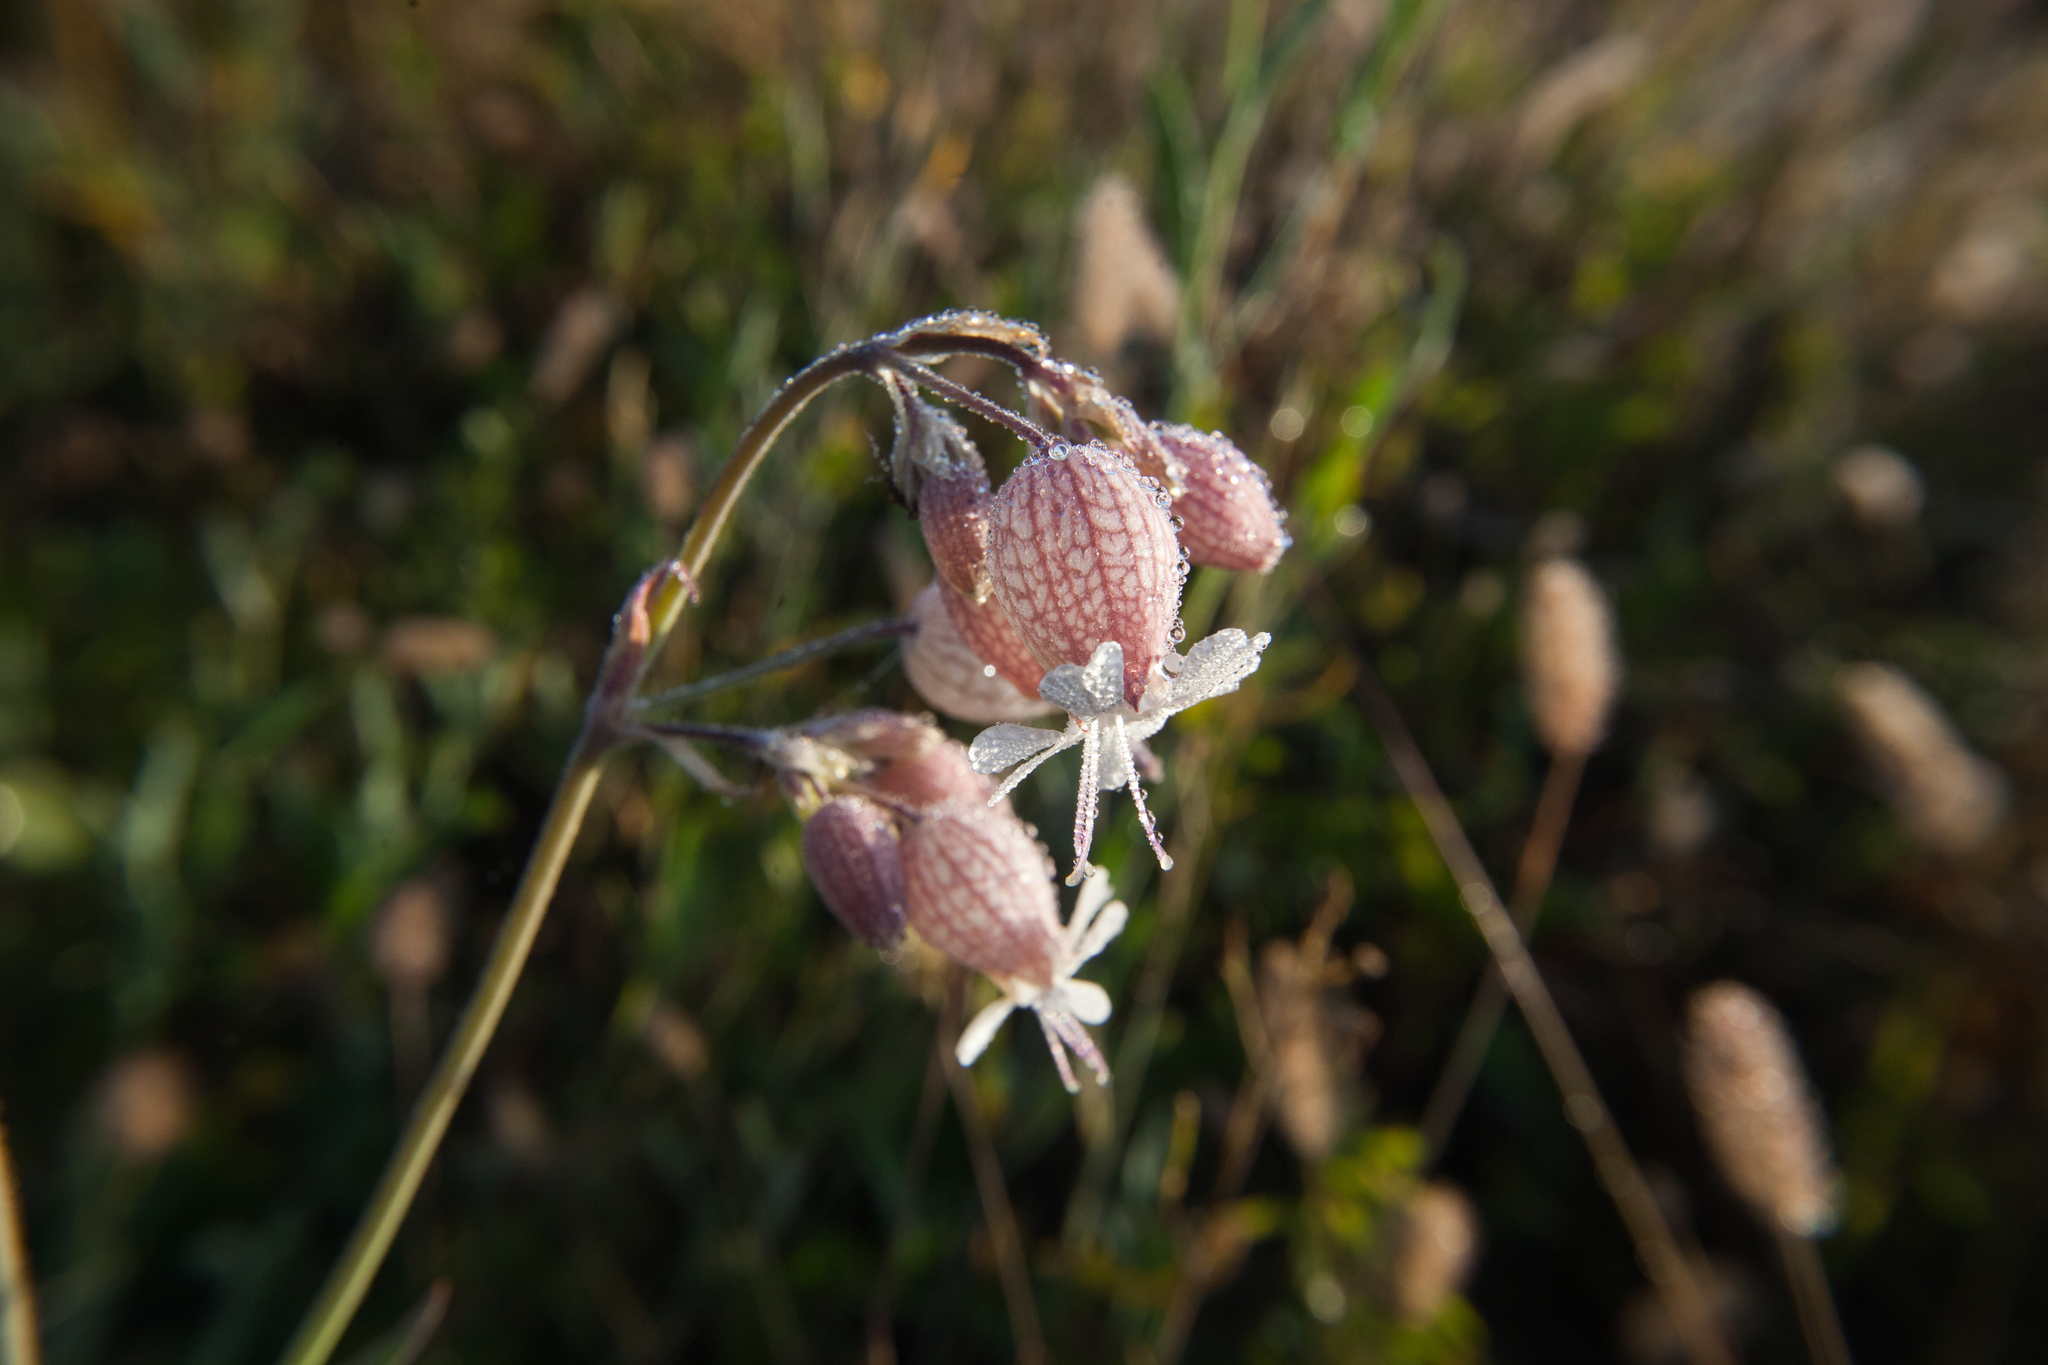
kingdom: Plantae
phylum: Tracheophyta
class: Magnoliopsida
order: Caryophyllales
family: Caryophyllaceae
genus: Silene
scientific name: Silene vulgaris
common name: Bladder campion
